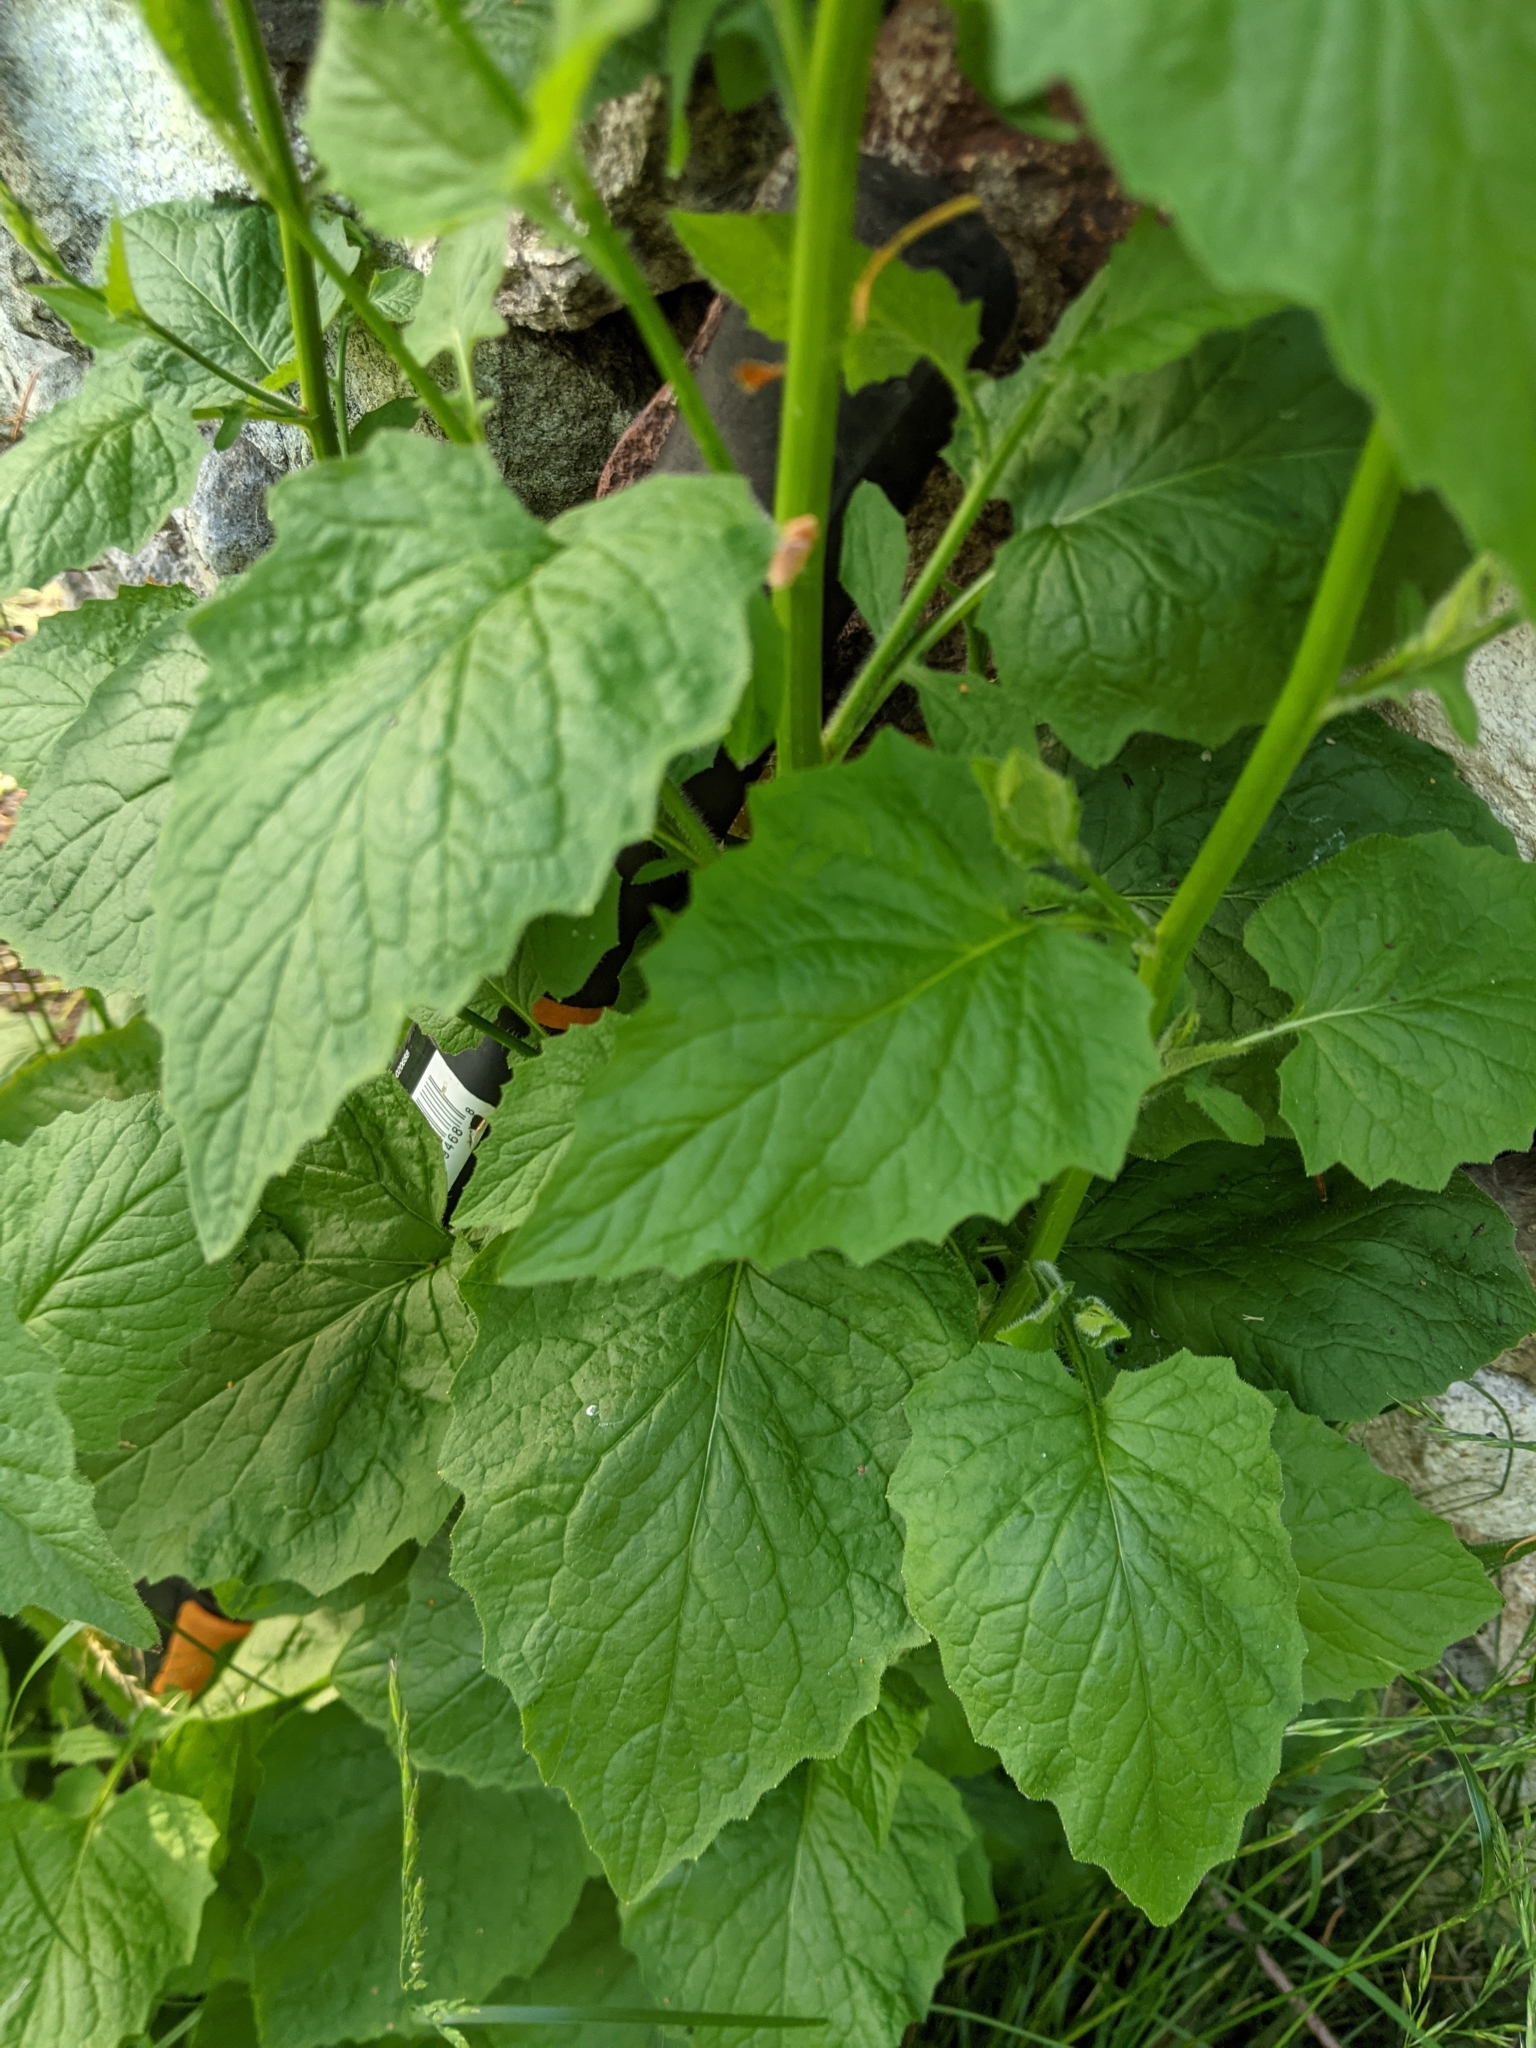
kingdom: Plantae
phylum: Tracheophyta
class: Magnoliopsida
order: Asterales
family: Asteraceae
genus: Lapsana
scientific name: Lapsana communis
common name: Nipplewort
